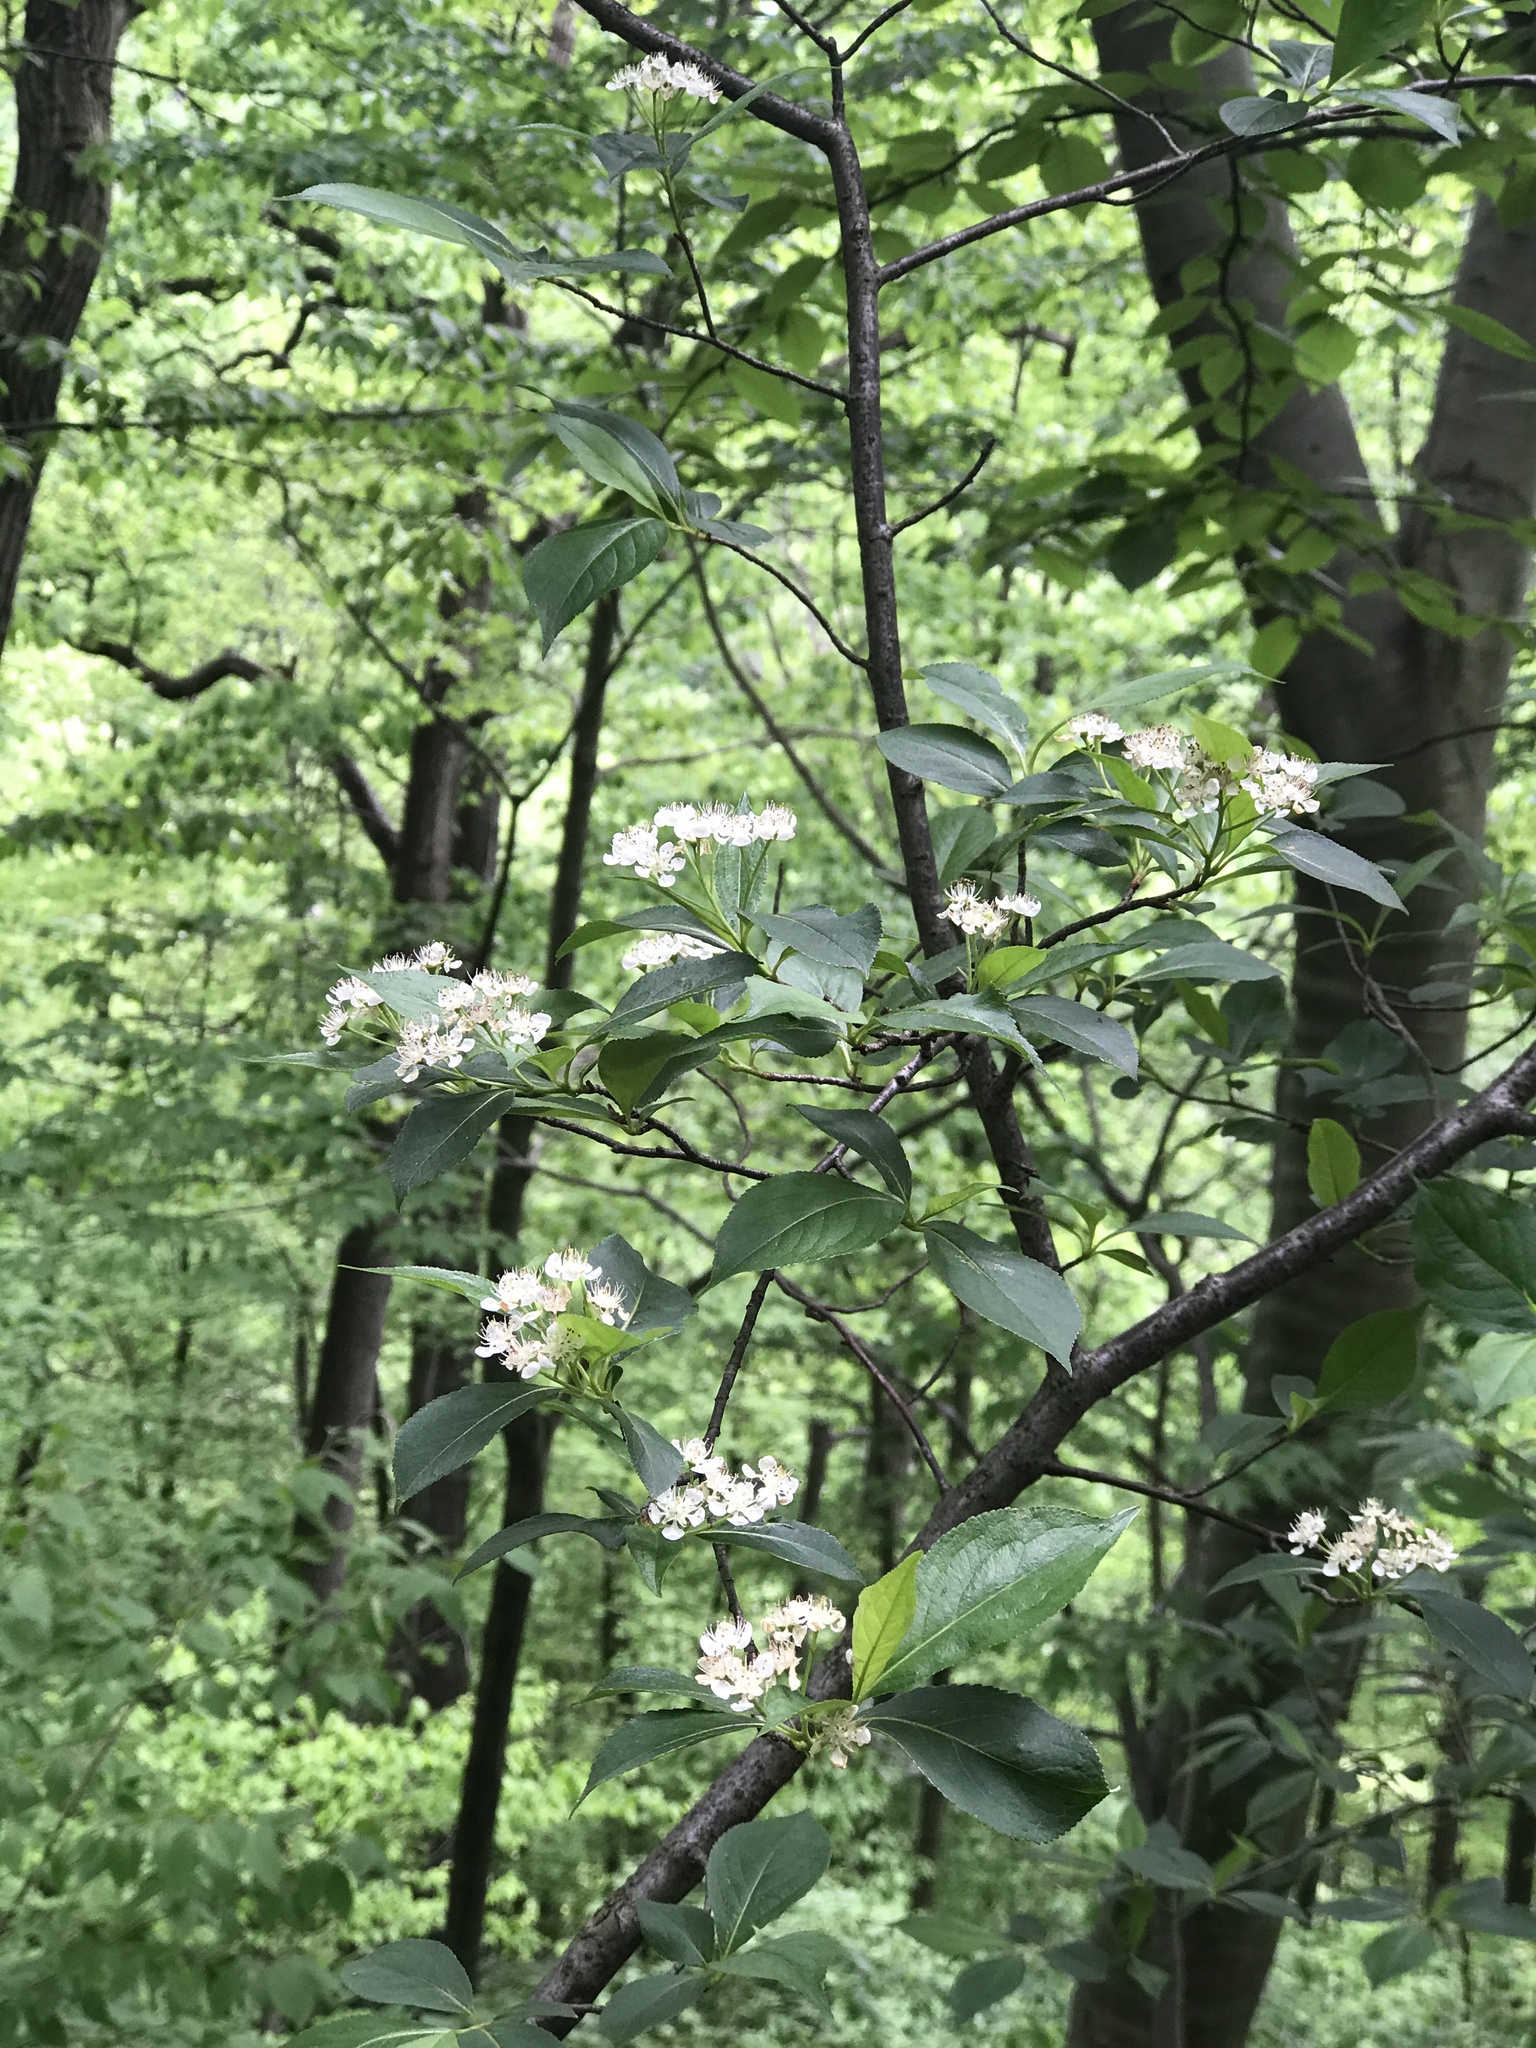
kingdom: Plantae
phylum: Tracheophyta
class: Magnoliopsida
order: Rosales
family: Rosaceae
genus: Aronia
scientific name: Aronia melanocarpa
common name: Black chokeberry
